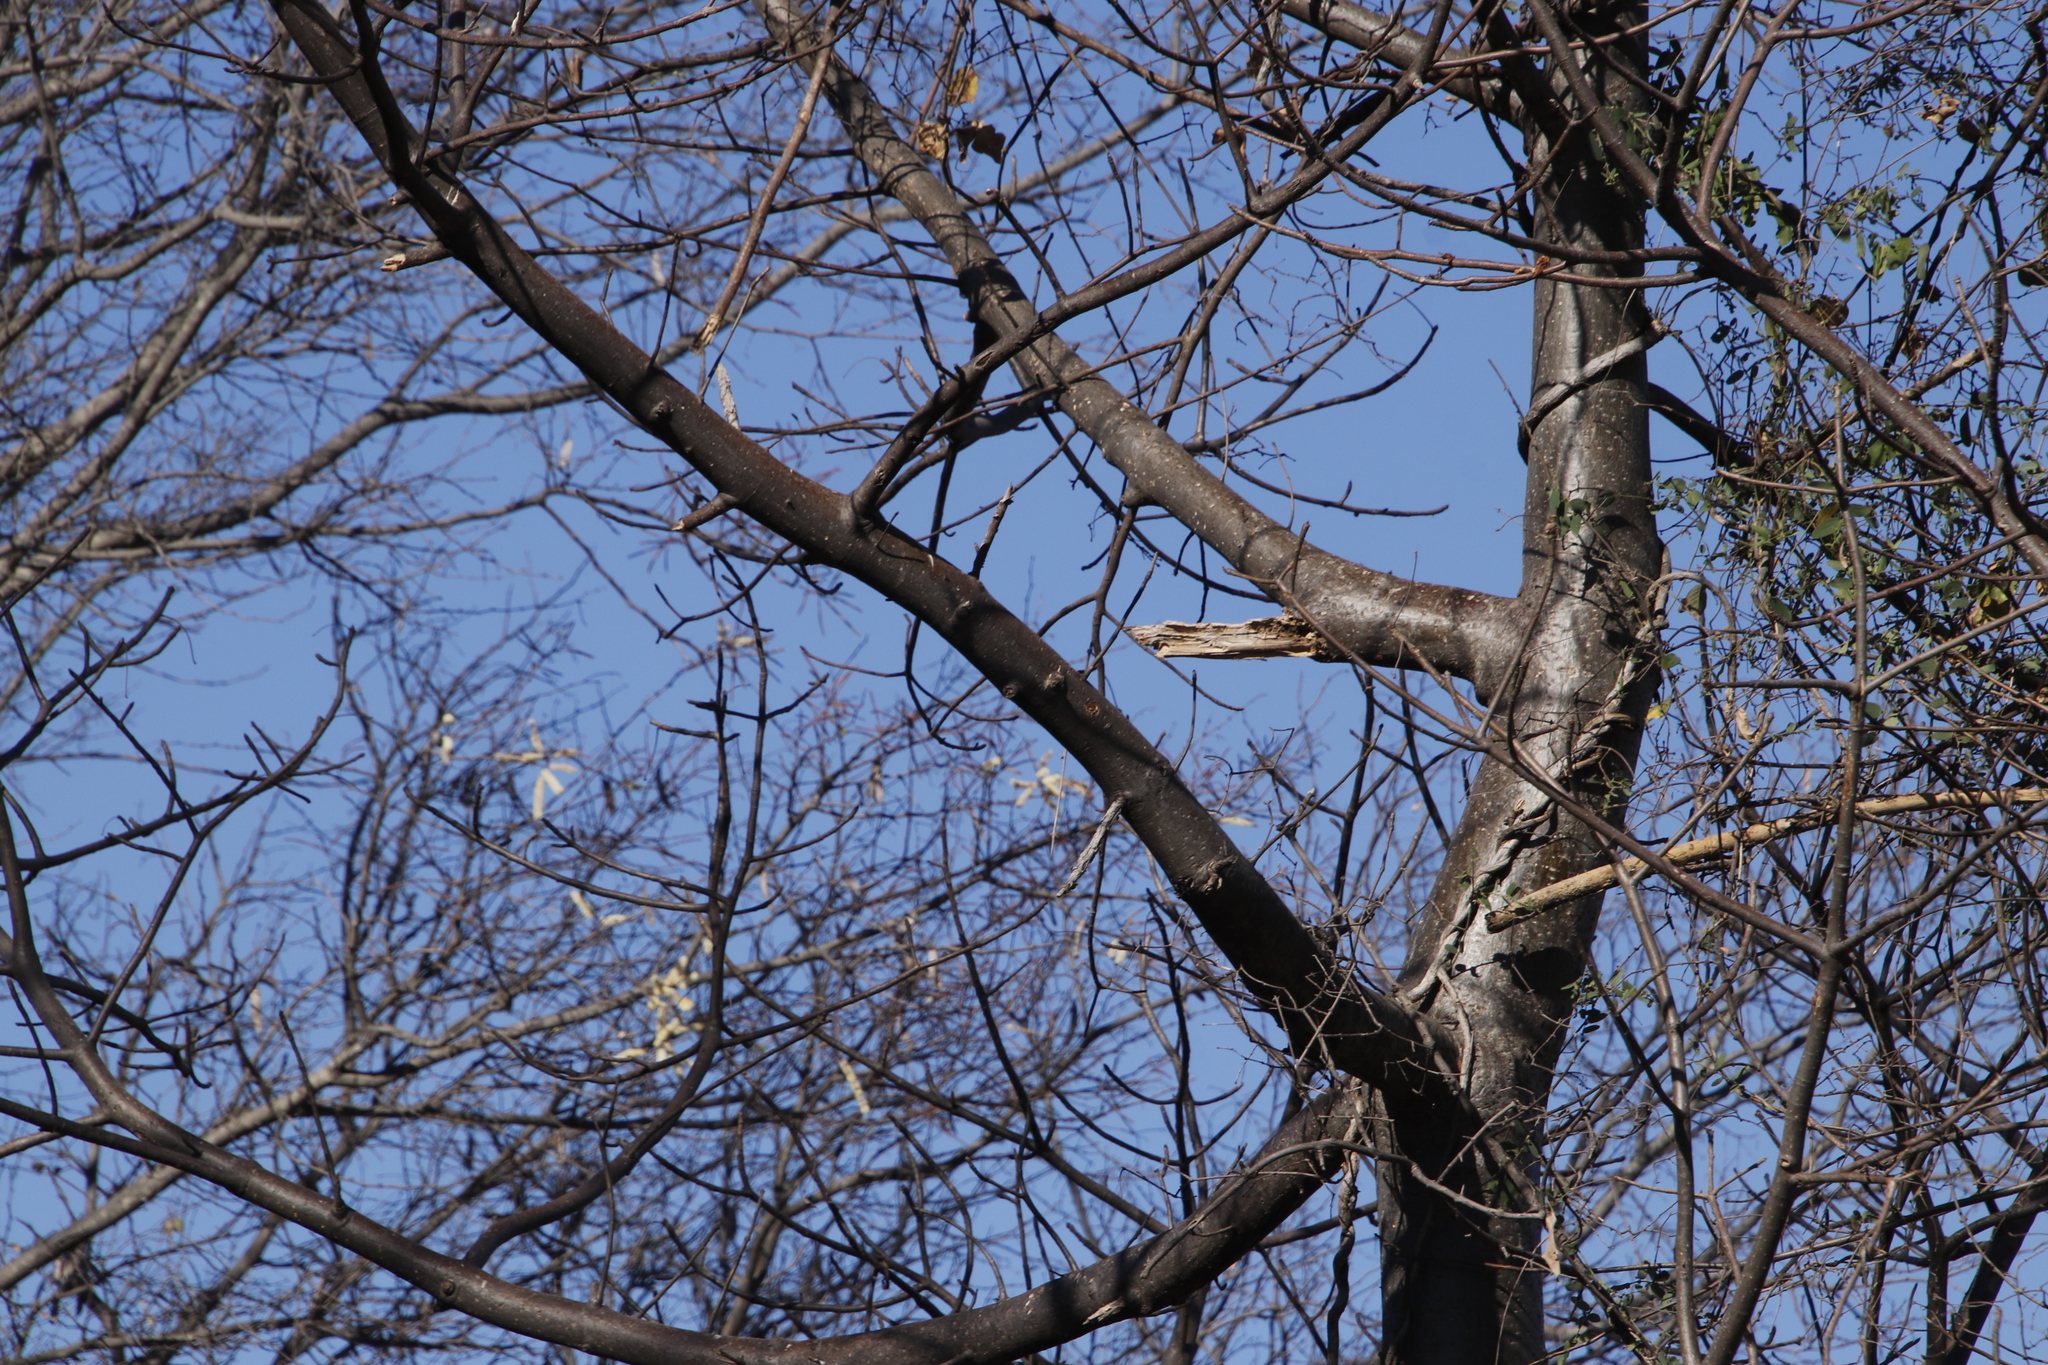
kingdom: Plantae
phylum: Tracheophyta
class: Magnoliopsida
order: Malvales
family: Malvaceae
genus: Adansonia
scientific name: Adansonia digitata
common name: Dead-rat-tree
